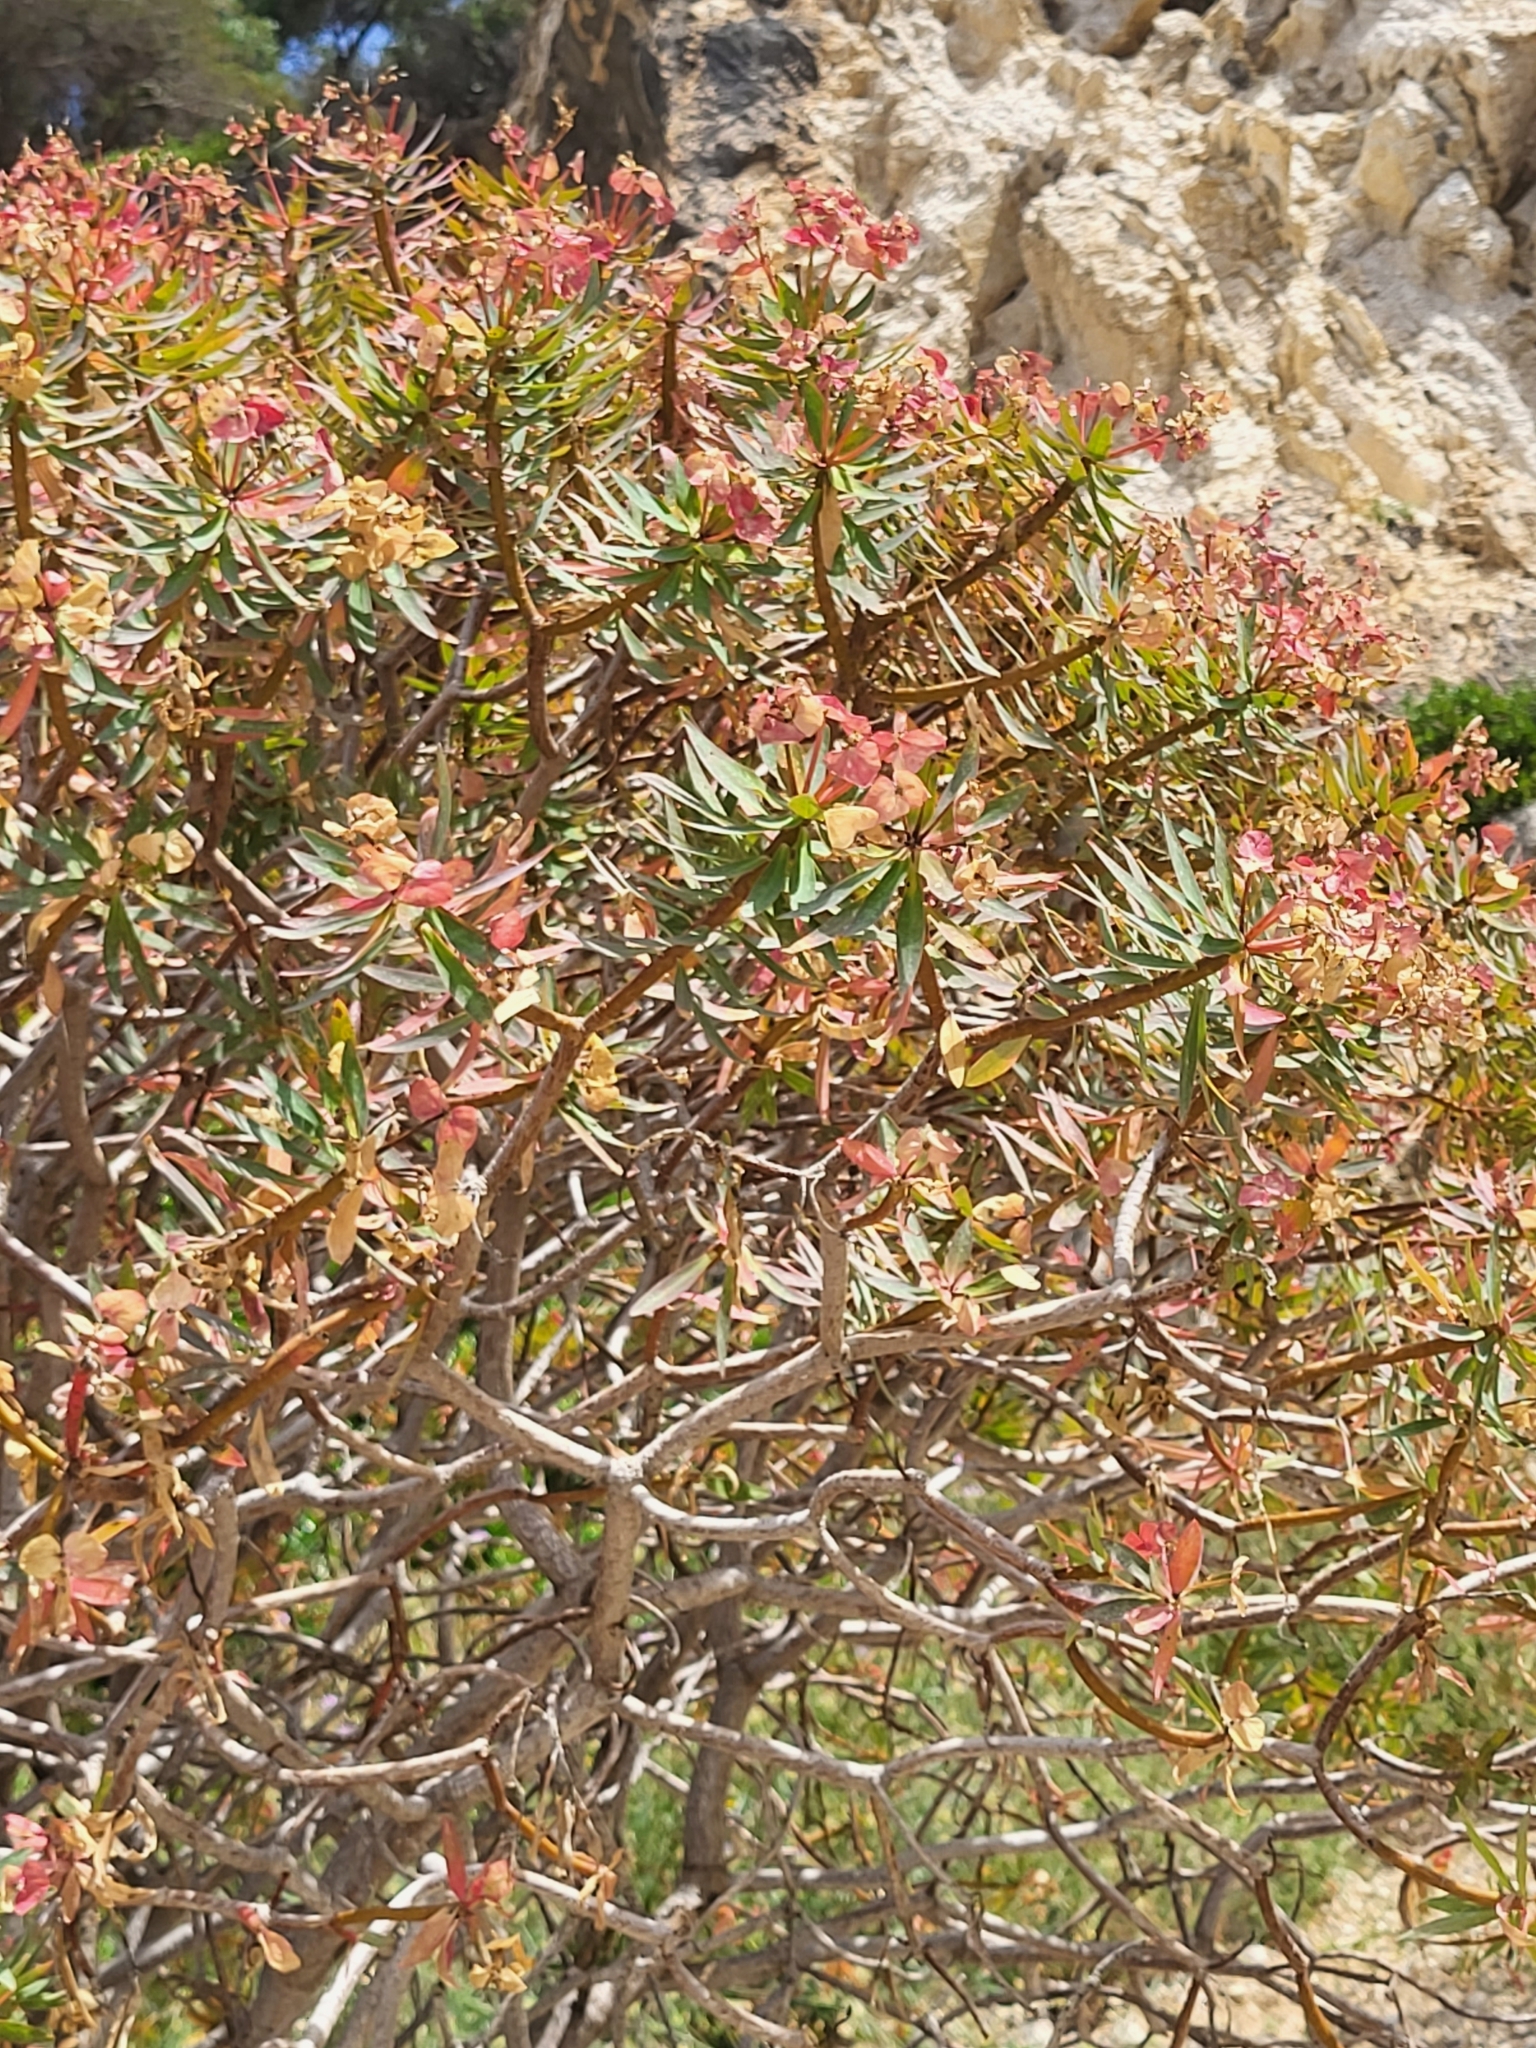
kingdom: Plantae
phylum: Tracheophyta
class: Magnoliopsida
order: Malpighiales
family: Euphorbiaceae
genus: Euphorbia
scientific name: Euphorbia dendroides
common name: Tree spurge
